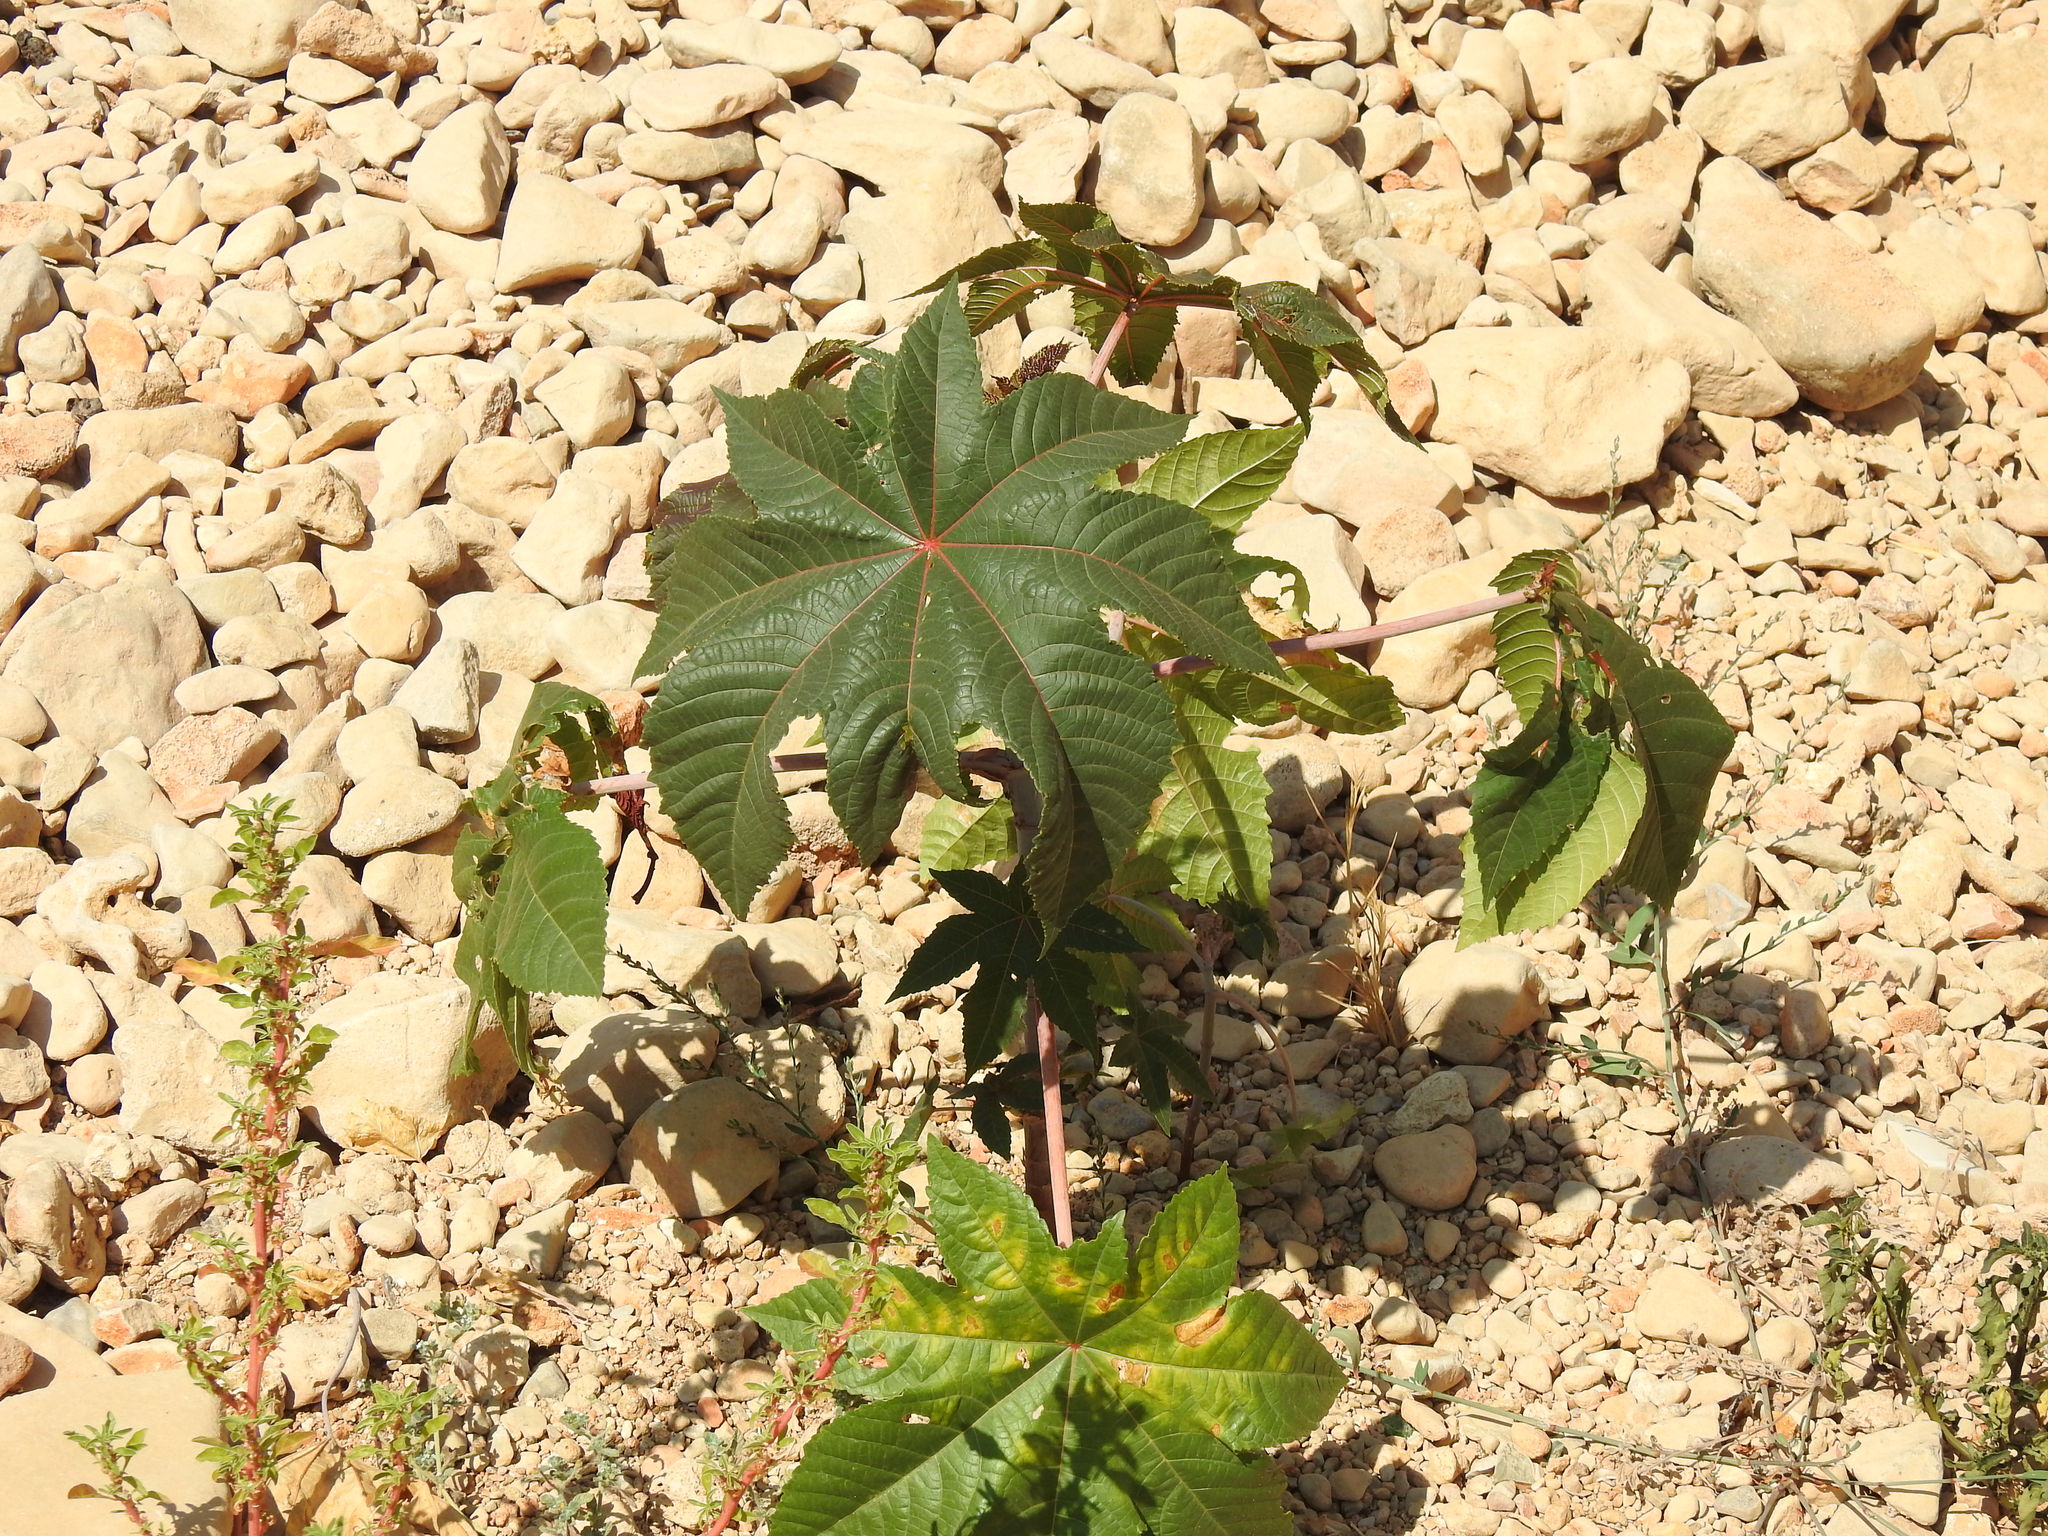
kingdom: Plantae
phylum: Tracheophyta
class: Magnoliopsida
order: Malpighiales
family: Euphorbiaceae
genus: Ricinus
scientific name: Ricinus communis
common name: Castor-oil-plant
